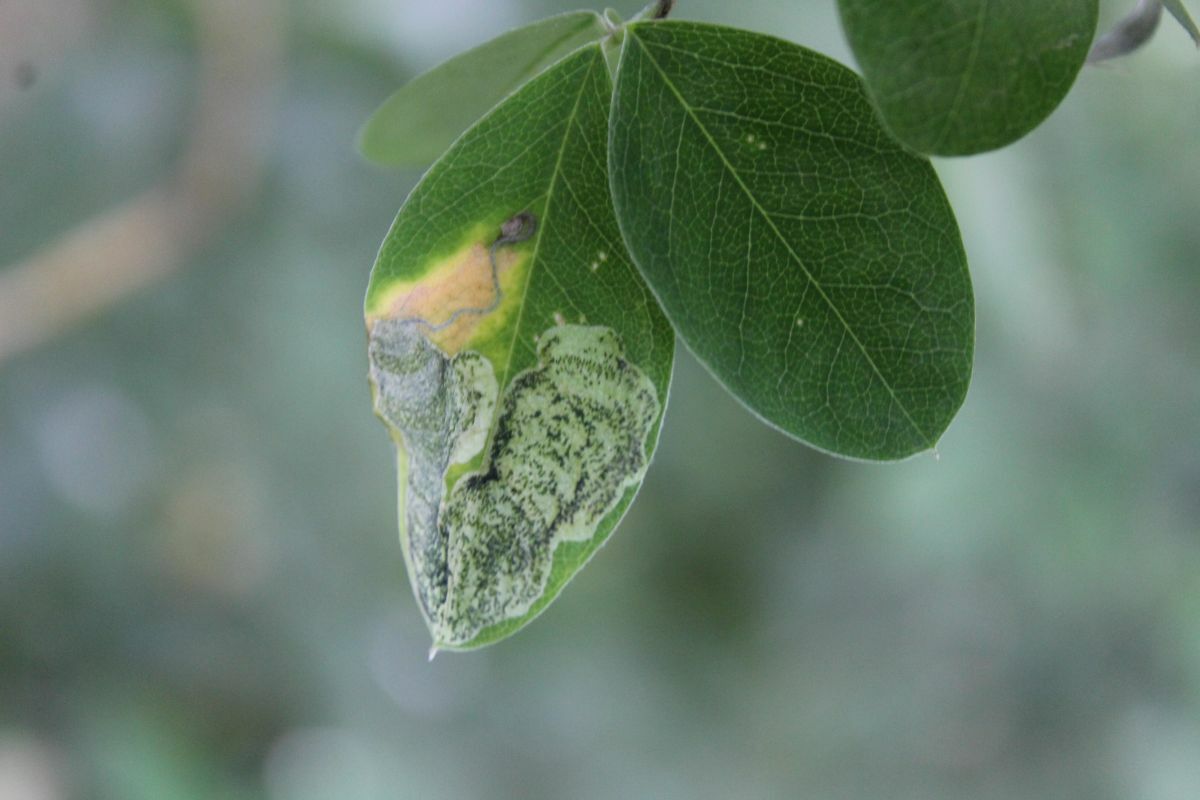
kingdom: Animalia
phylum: Arthropoda
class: Insecta
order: Lepidoptera
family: Lyonetiidae
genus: Leucoptera
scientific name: Leucoptera laburnella
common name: Laburnum leaf miner
